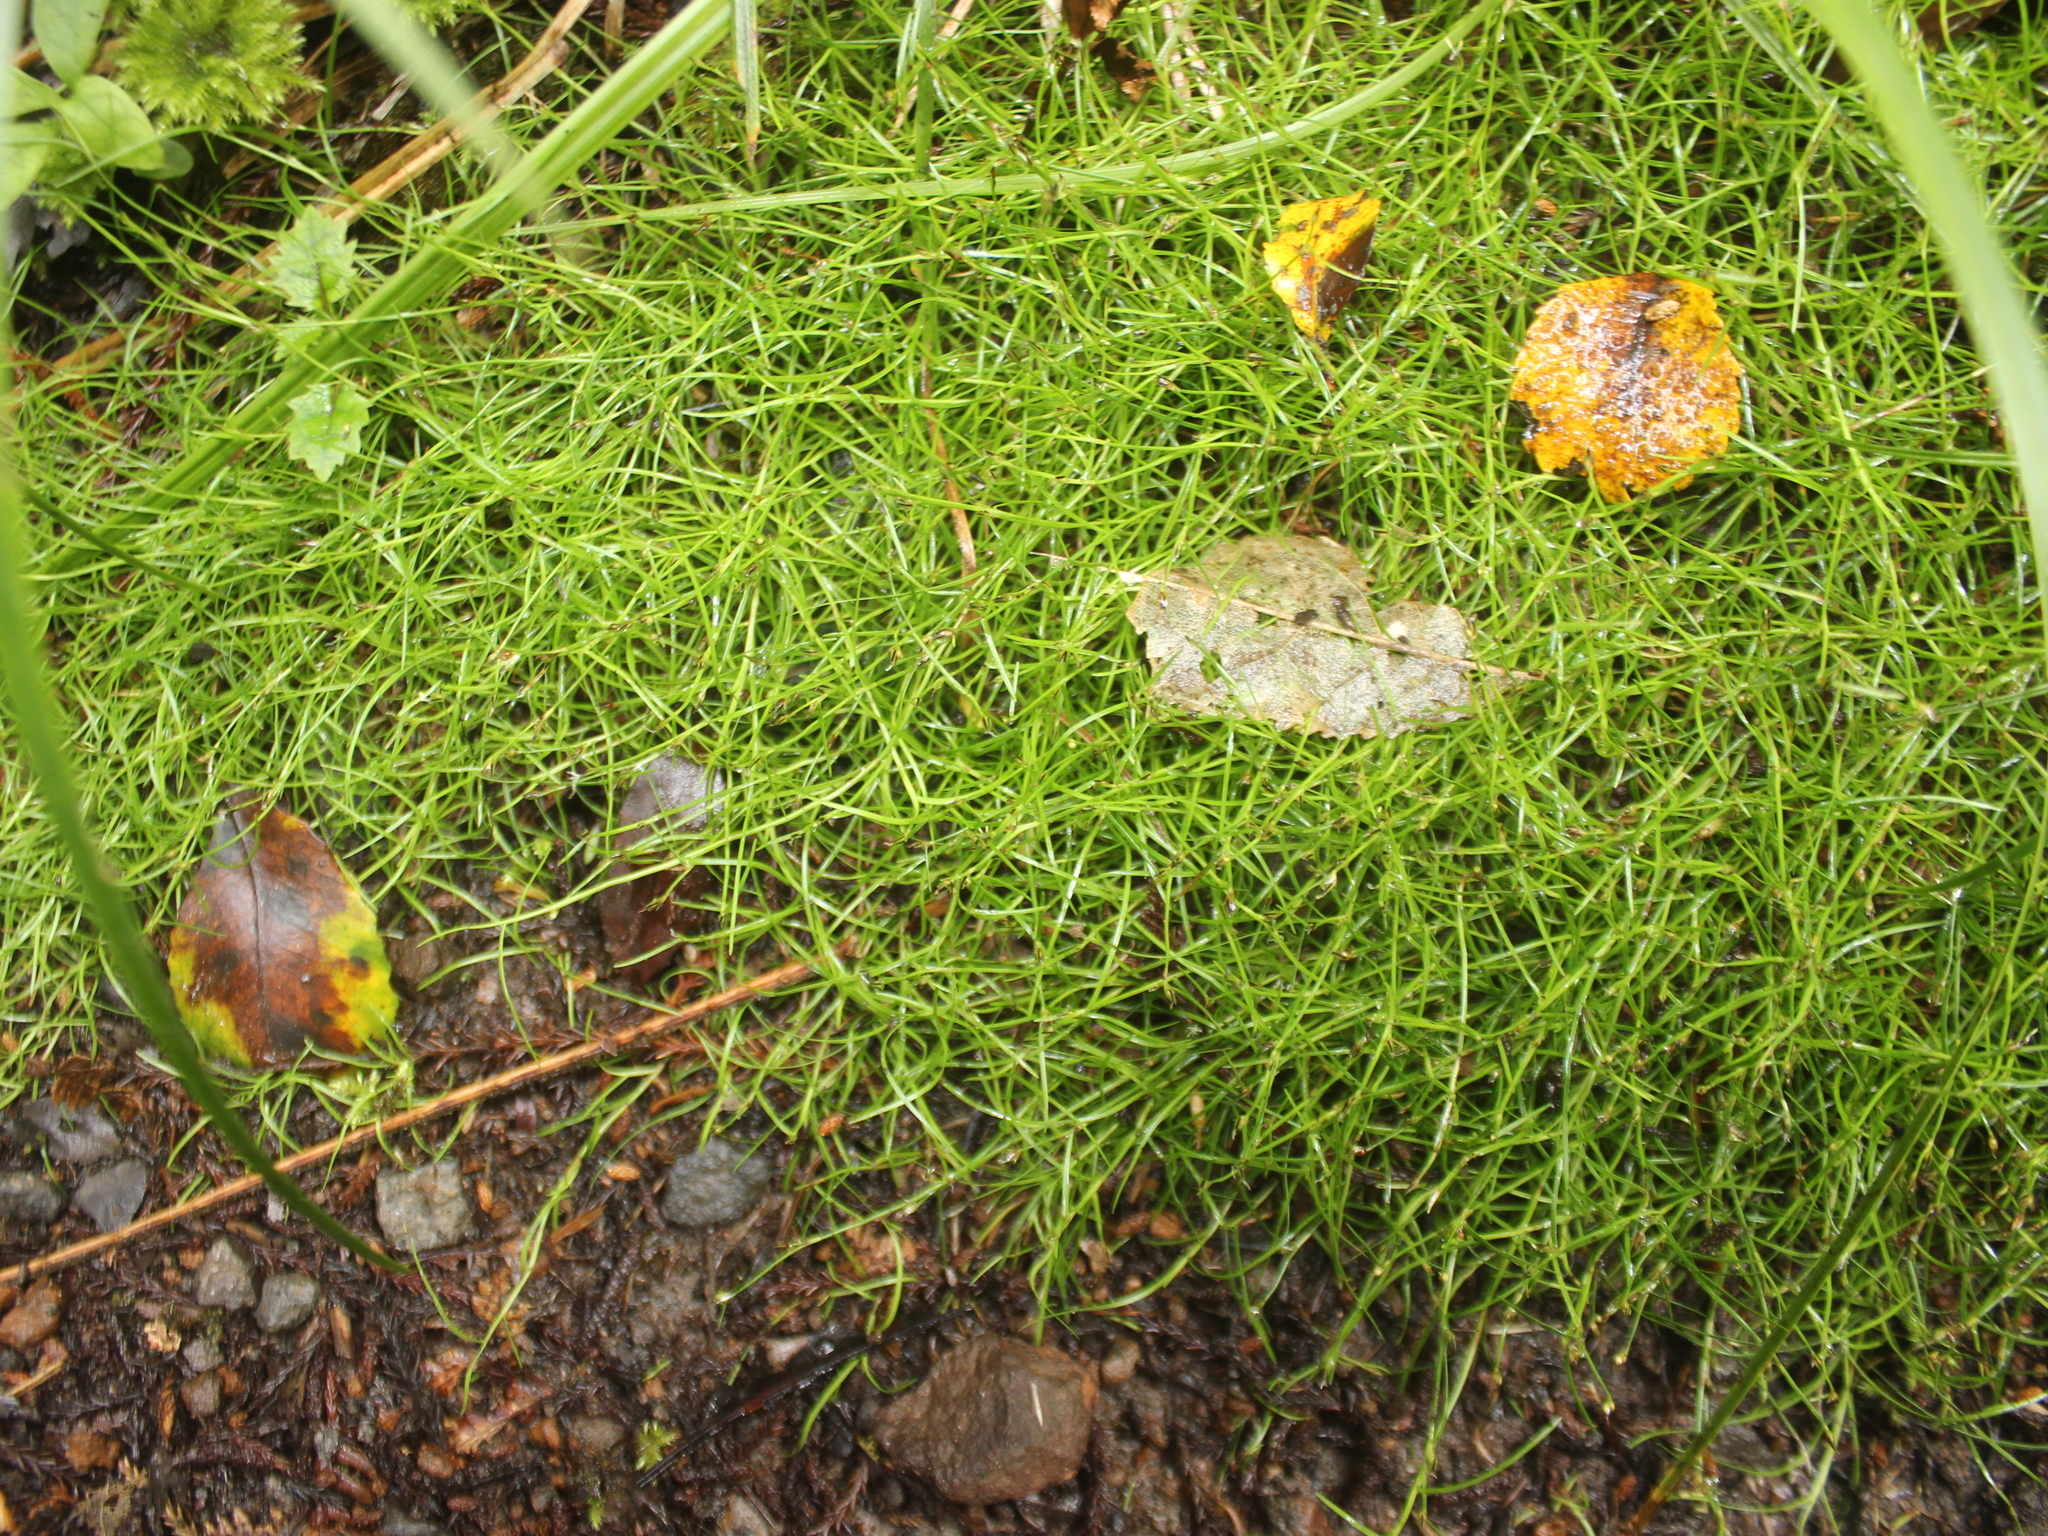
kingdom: Plantae
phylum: Tracheophyta
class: Liliopsida
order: Poales
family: Cyperaceae
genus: Schoenus
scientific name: Schoenus maschalinus
